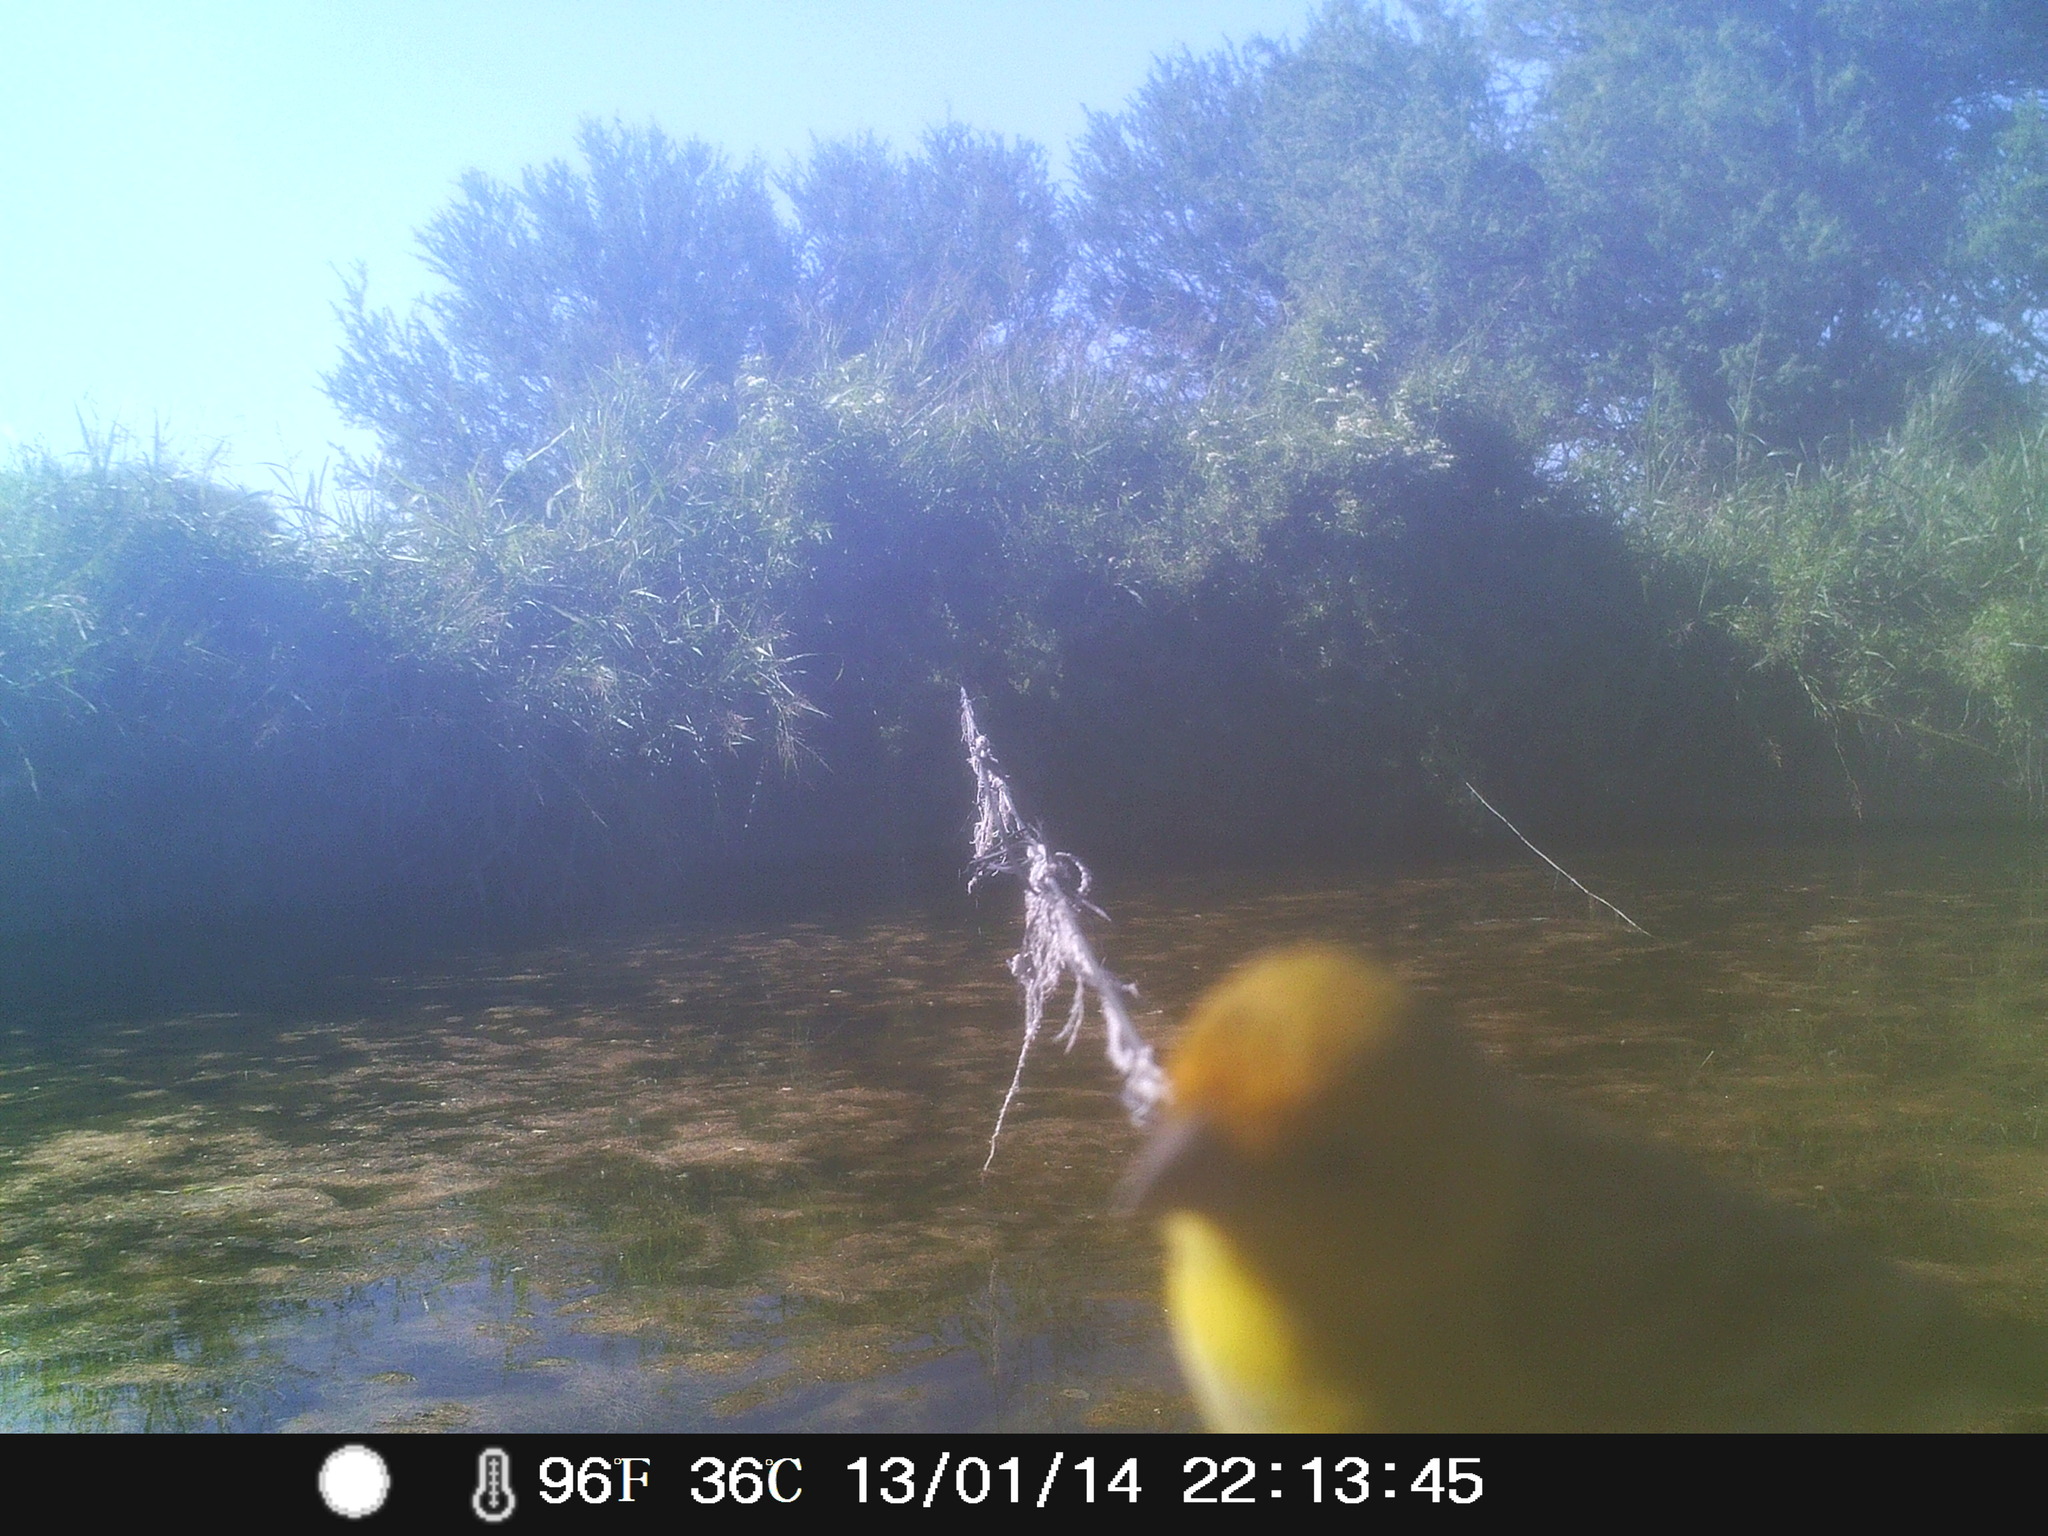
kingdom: Animalia
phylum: Chordata
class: Aves
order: Passeriformes
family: Thraupidae
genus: Sicalis
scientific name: Sicalis flaveola
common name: Saffron finch
